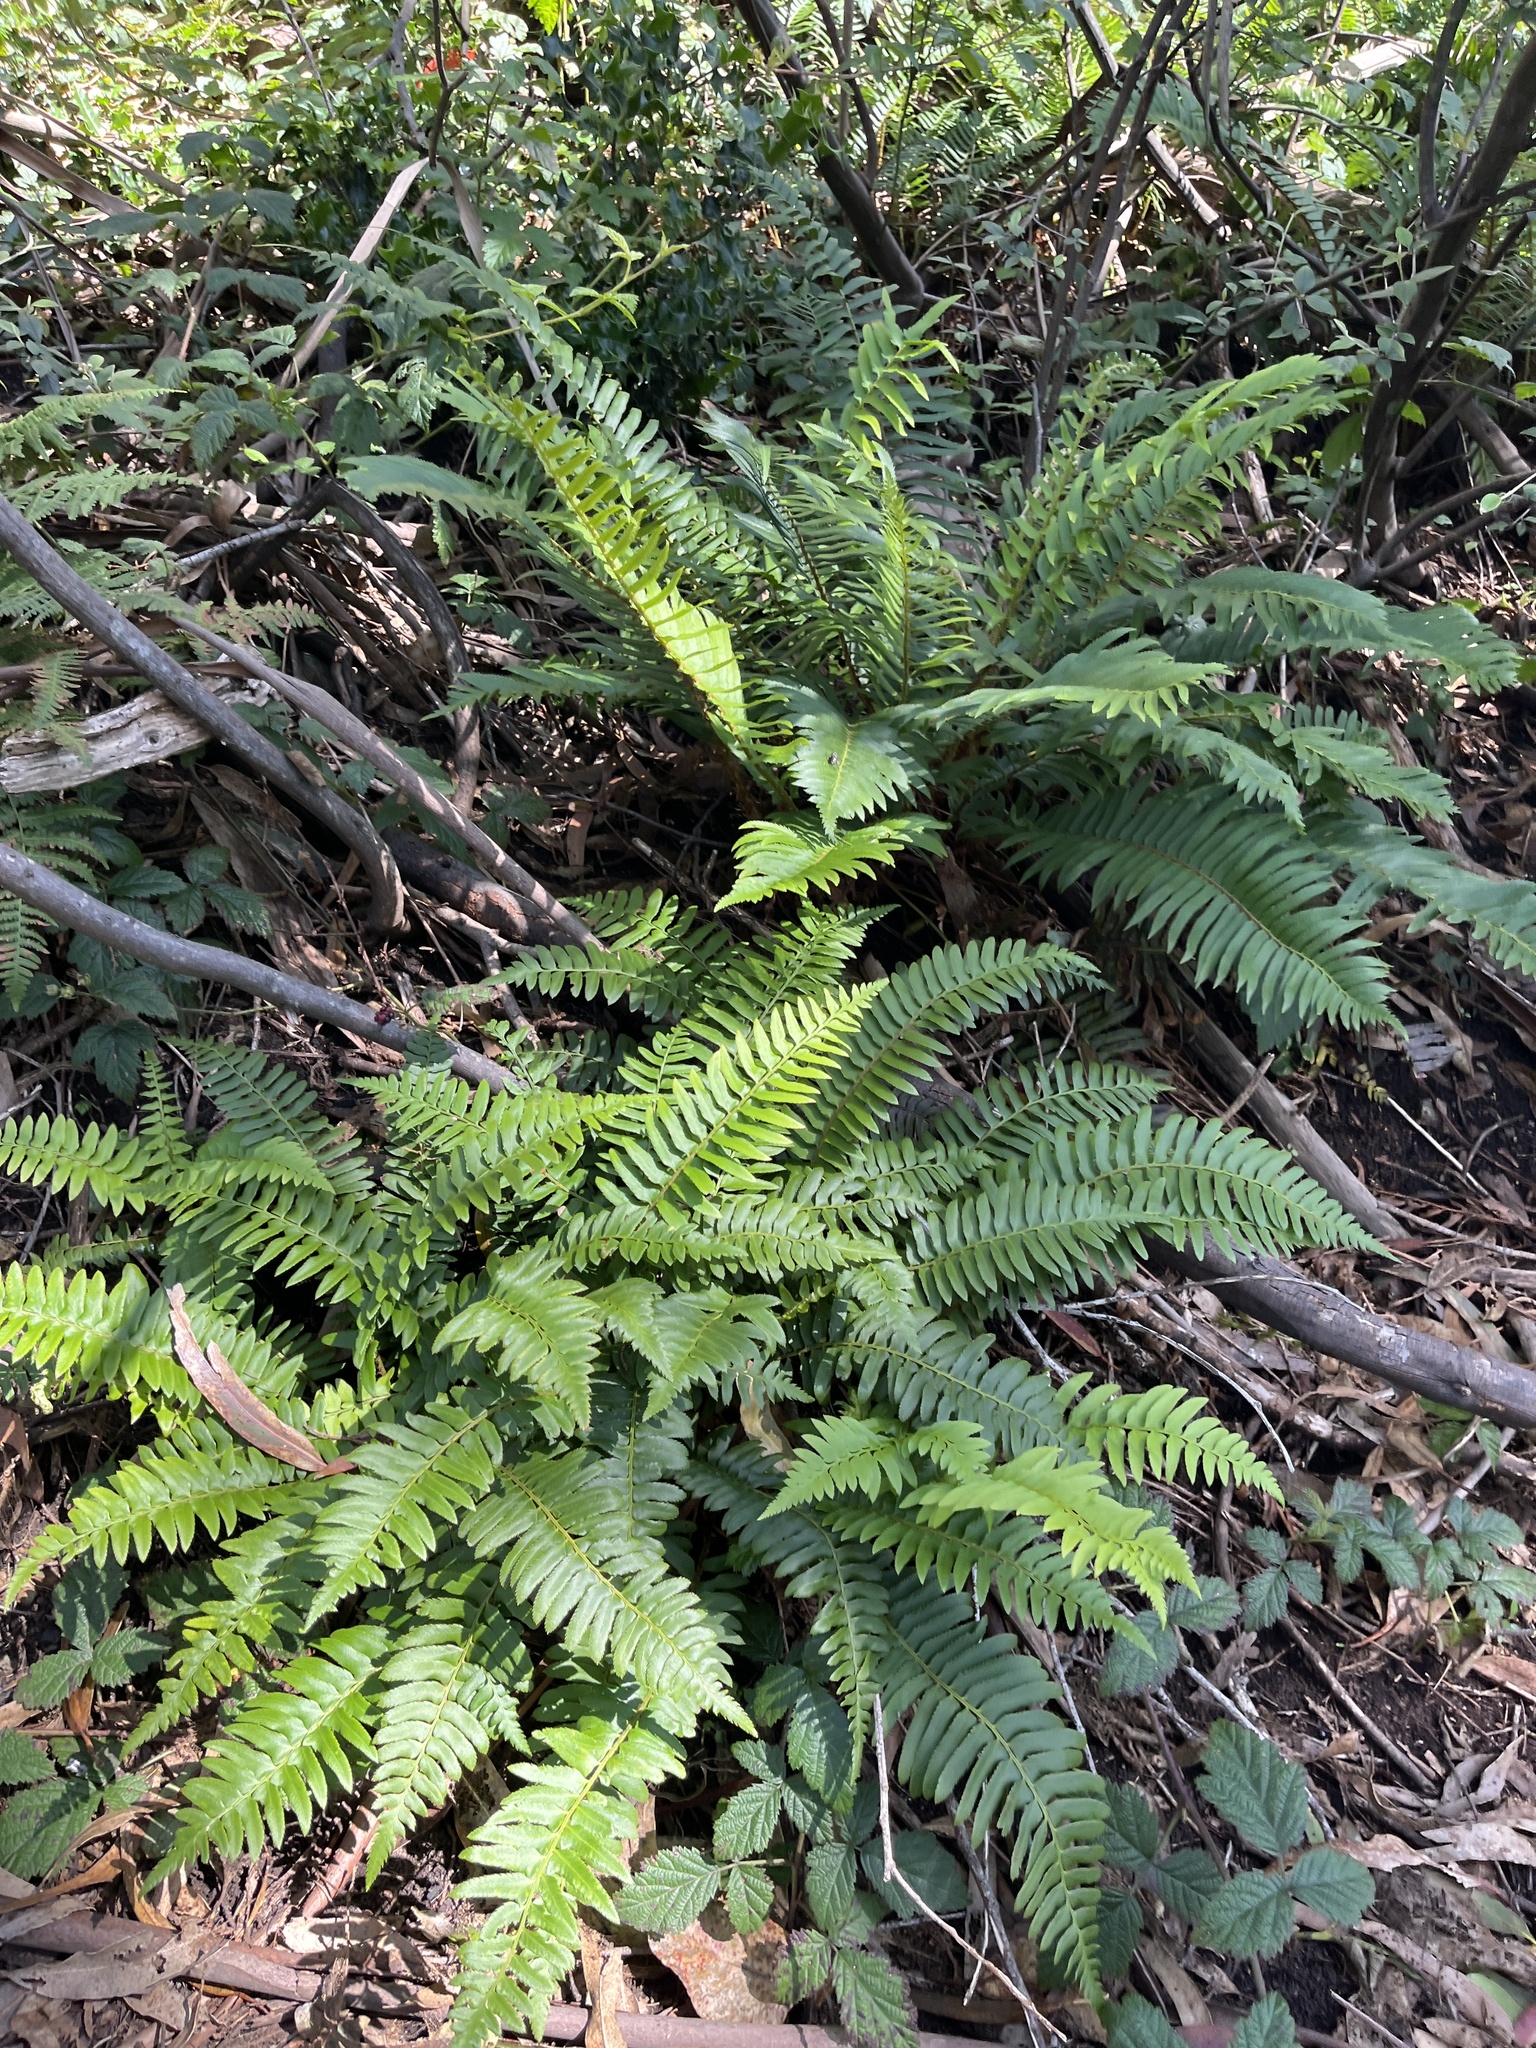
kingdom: Plantae
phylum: Tracheophyta
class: Polypodiopsida
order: Polypodiales
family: Dryopteridaceae
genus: Polystichum
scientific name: Polystichum munitum
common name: Western sword-fern
